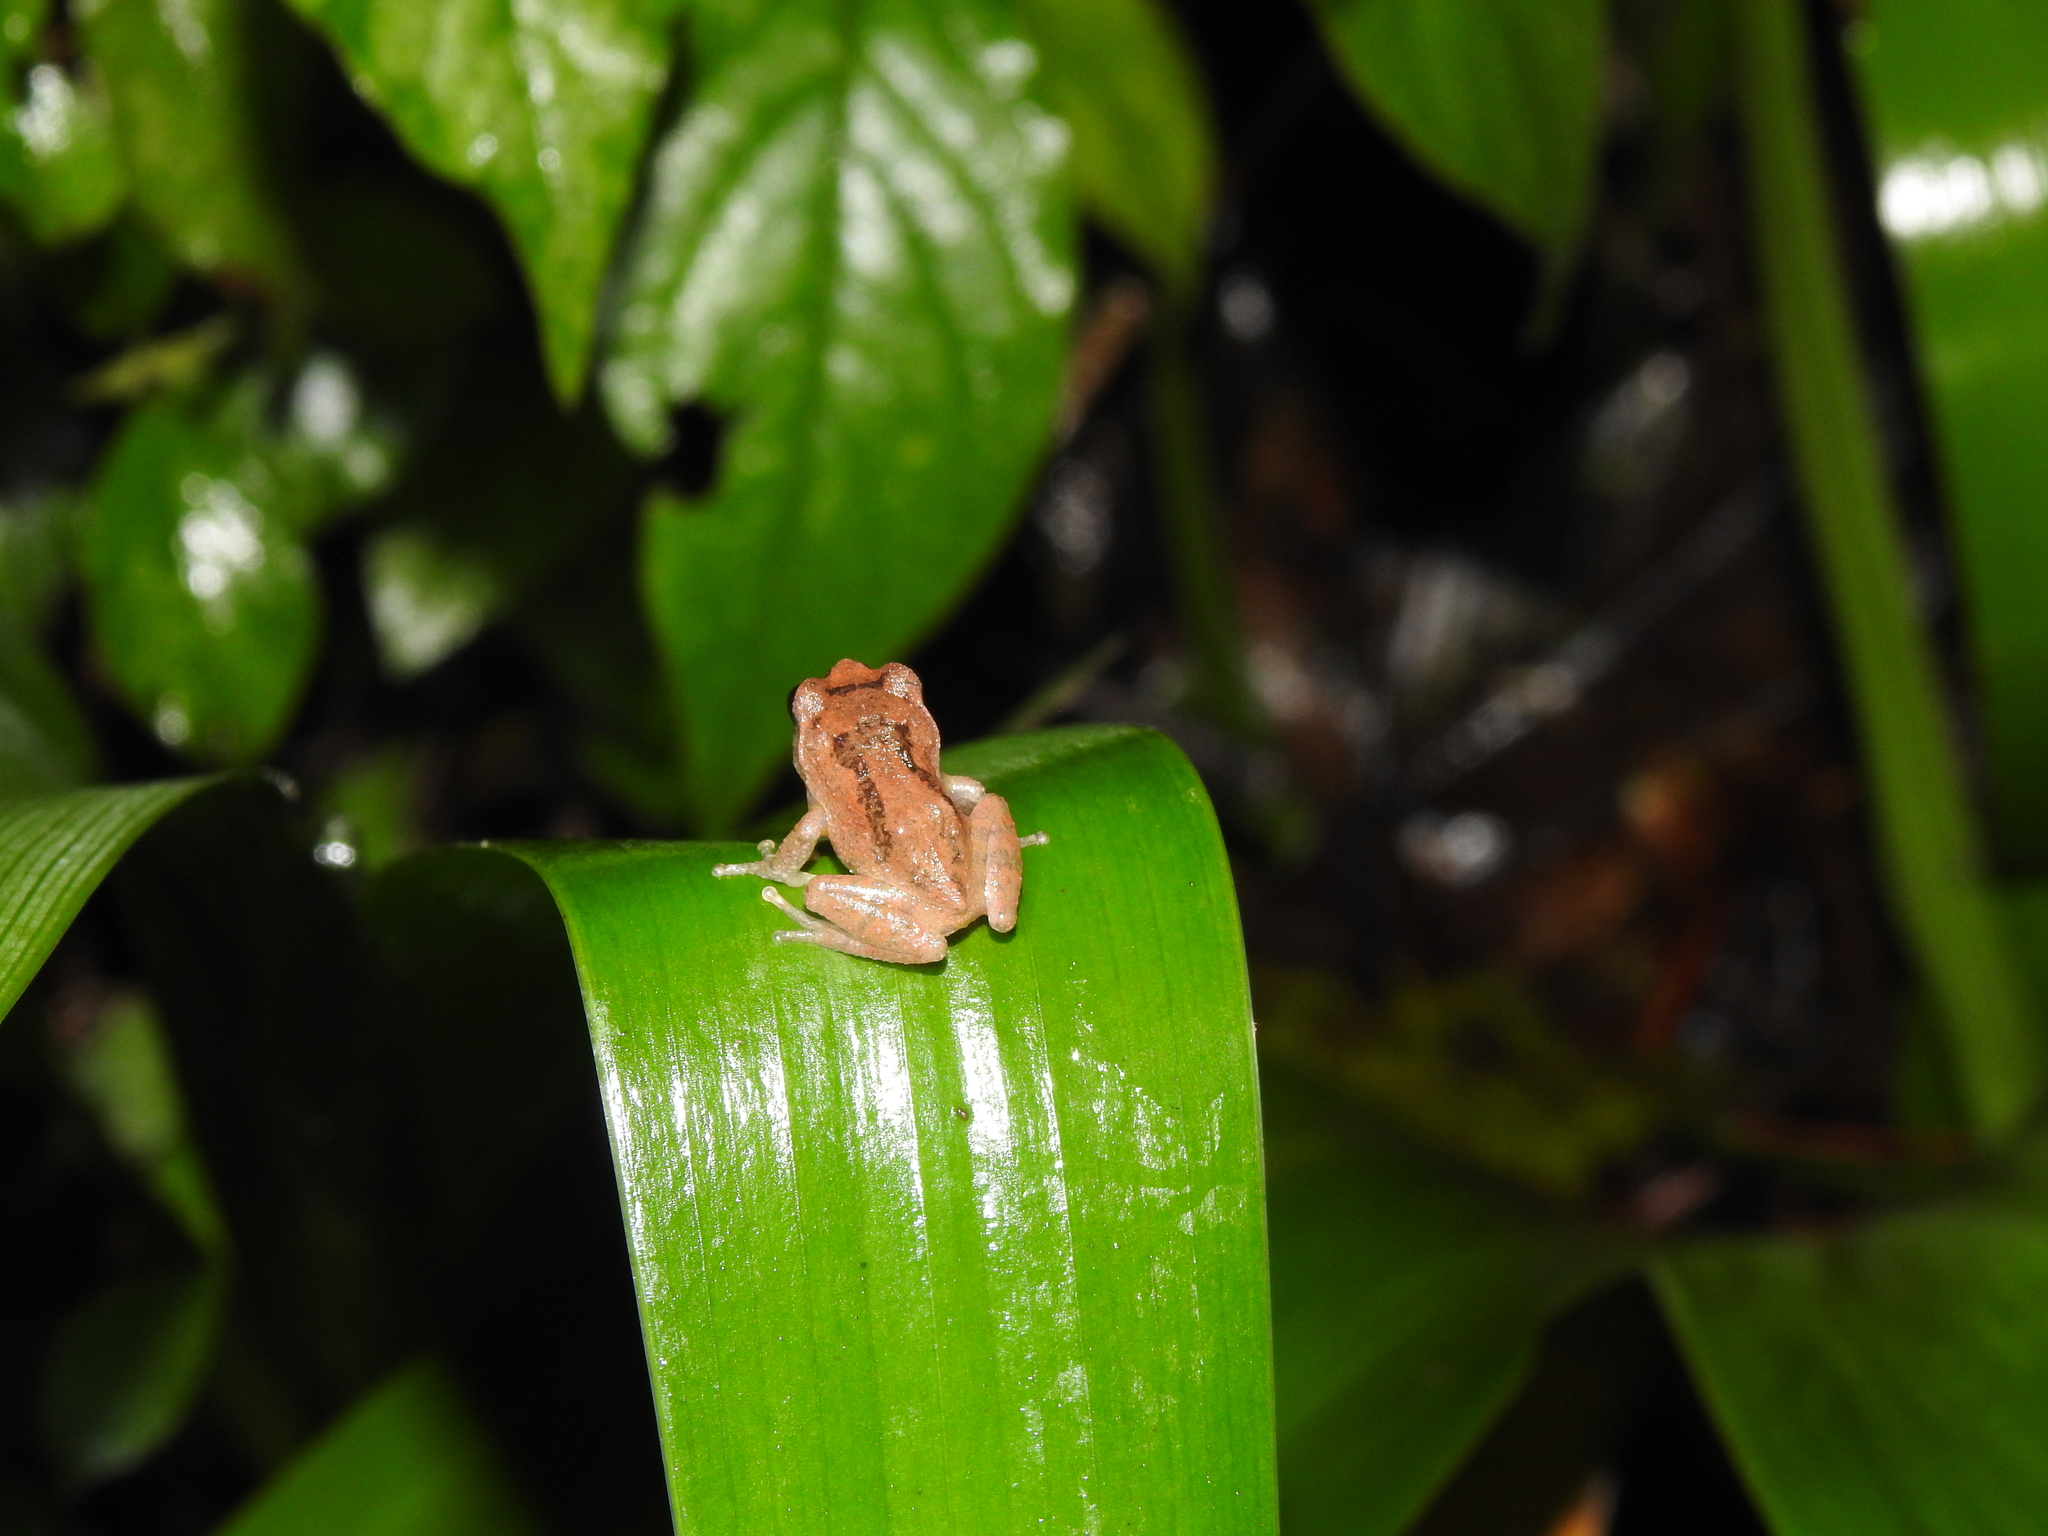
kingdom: Animalia
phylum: Chordata
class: Amphibia
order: Anura
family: Rhacophoridae
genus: Raorchestes
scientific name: Raorchestes dubois
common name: Koadaikanal bush frog
